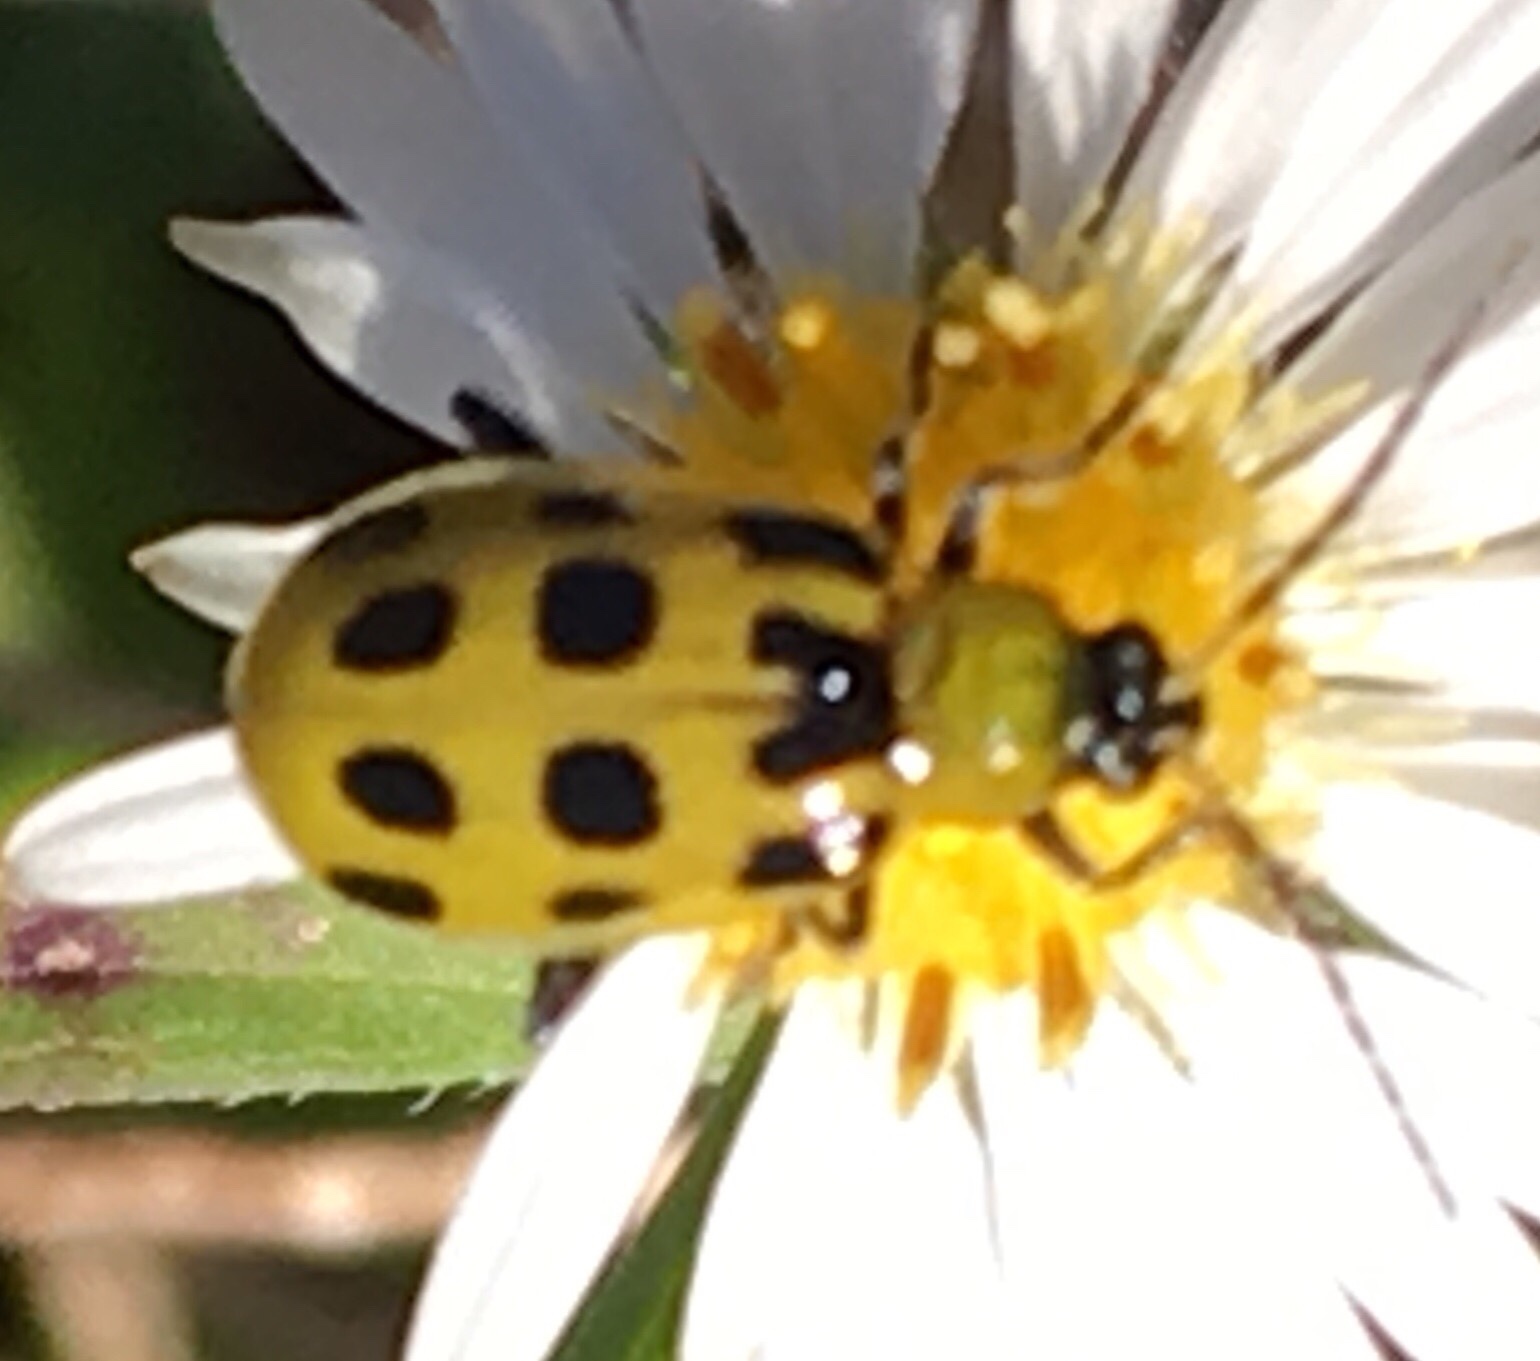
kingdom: Animalia
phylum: Arthropoda
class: Insecta
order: Coleoptera
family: Chrysomelidae
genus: Diabrotica
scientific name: Diabrotica undecimpunctata
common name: Spotted cucumber beetle
